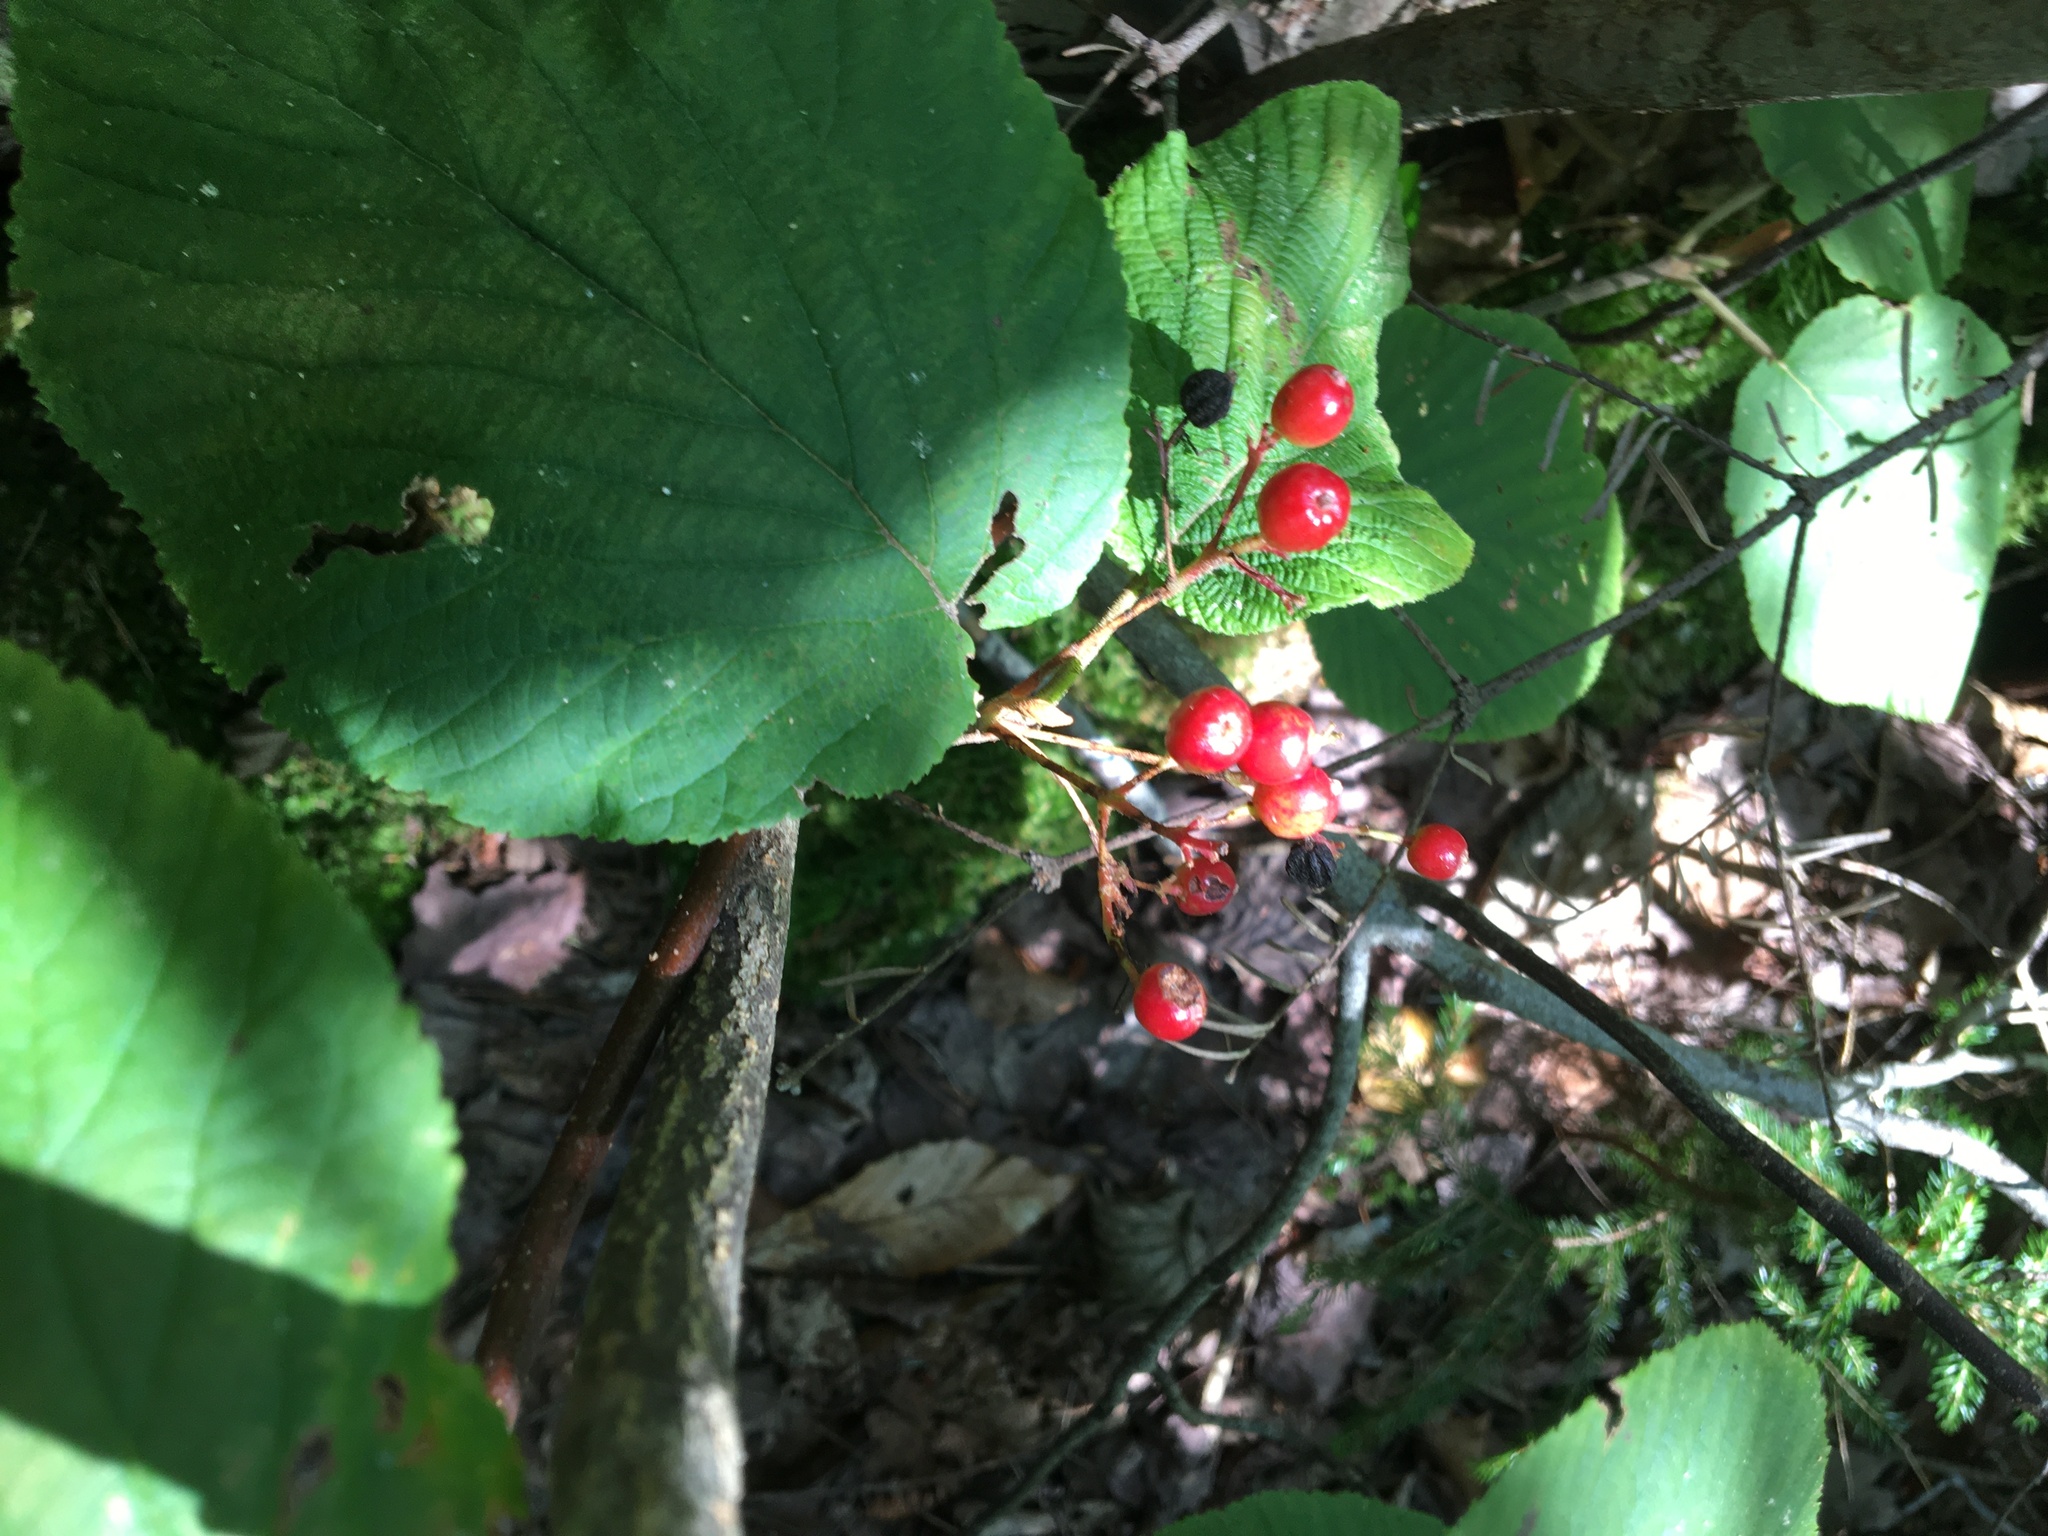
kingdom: Plantae
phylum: Tracheophyta
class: Magnoliopsida
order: Dipsacales
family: Viburnaceae
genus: Viburnum
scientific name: Viburnum lantanoides
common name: Hobblebush
